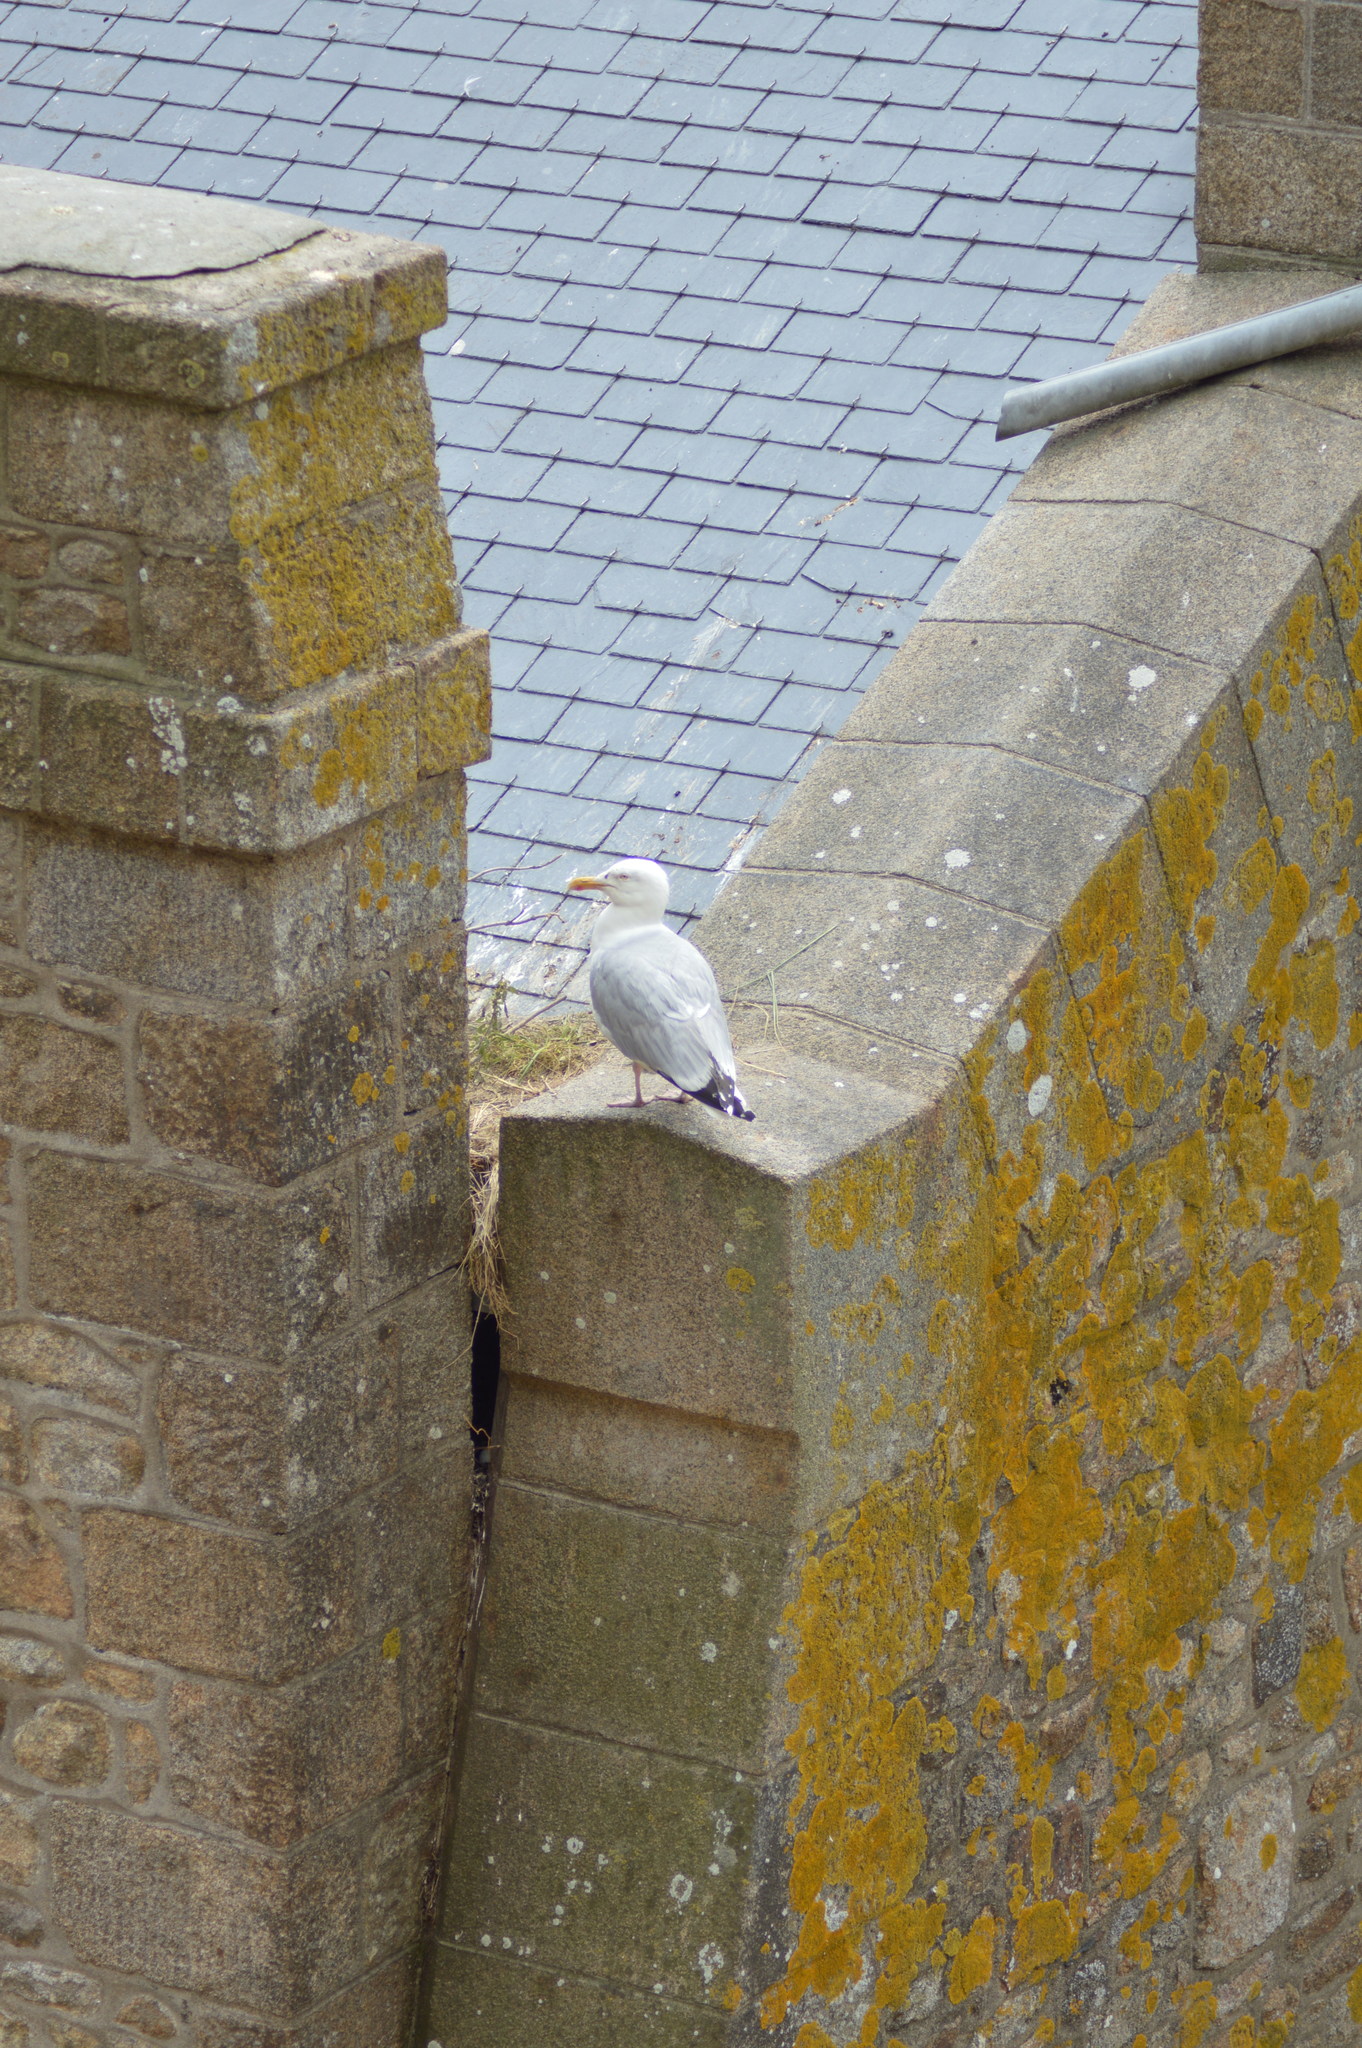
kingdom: Animalia
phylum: Chordata
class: Aves
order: Charadriiformes
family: Laridae
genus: Larus
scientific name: Larus argentatus
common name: Herring gull
